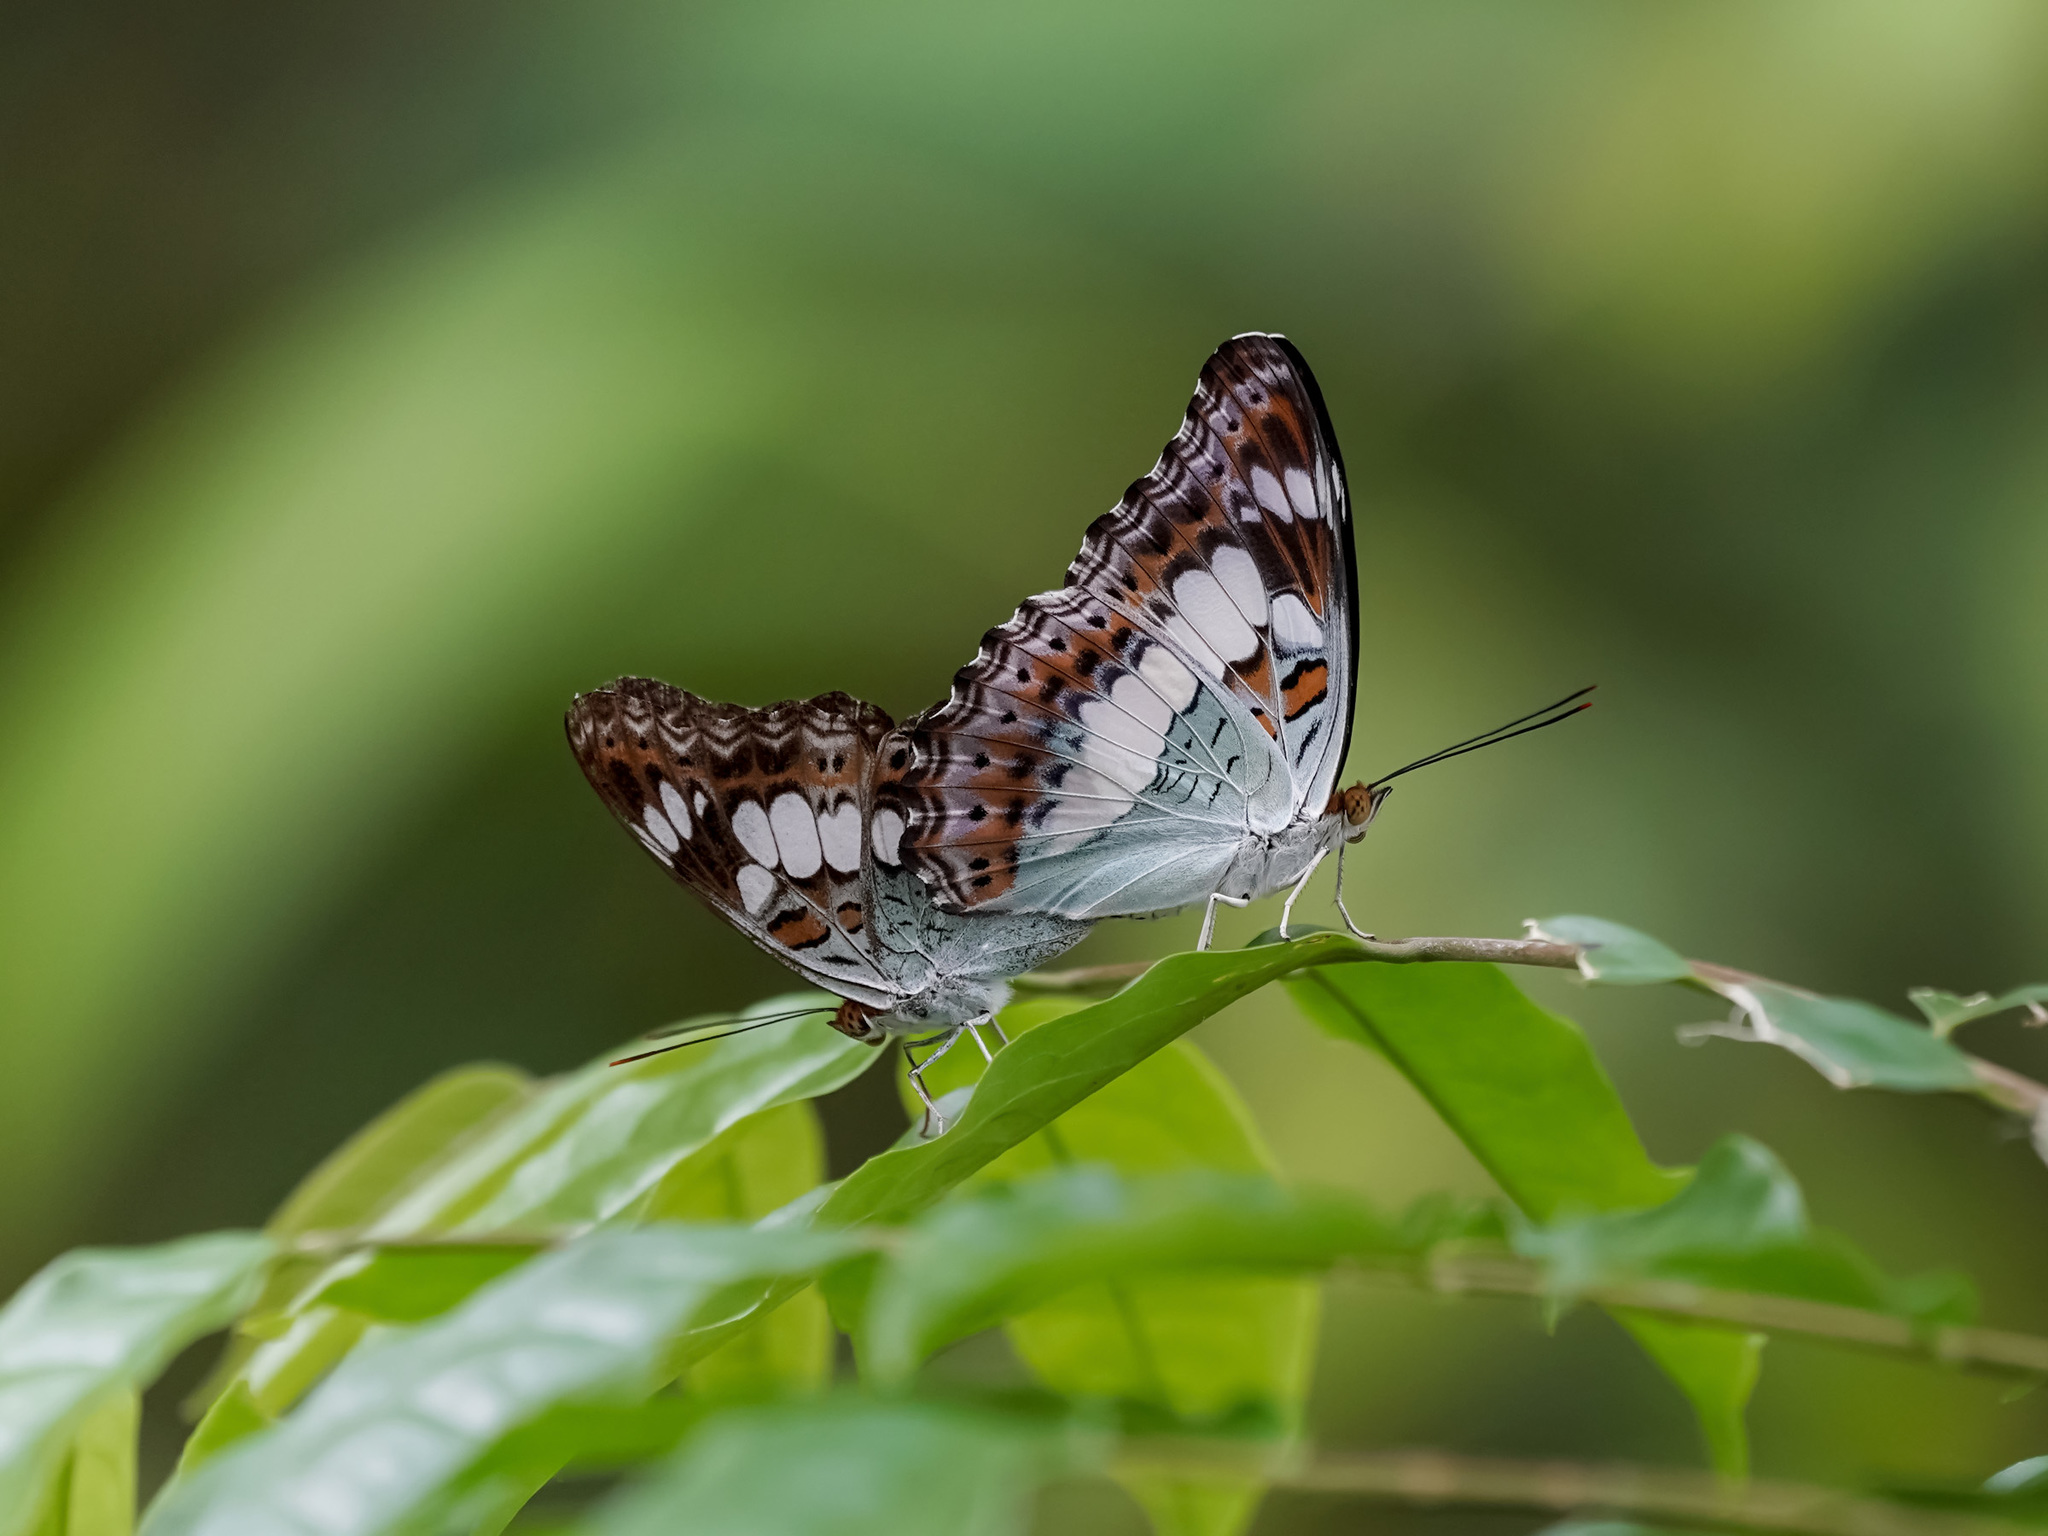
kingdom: Animalia
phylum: Arthropoda
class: Insecta
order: Lepidoptera
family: Nymphalidae
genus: Limenitis
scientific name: Limenitis Moduza procris
